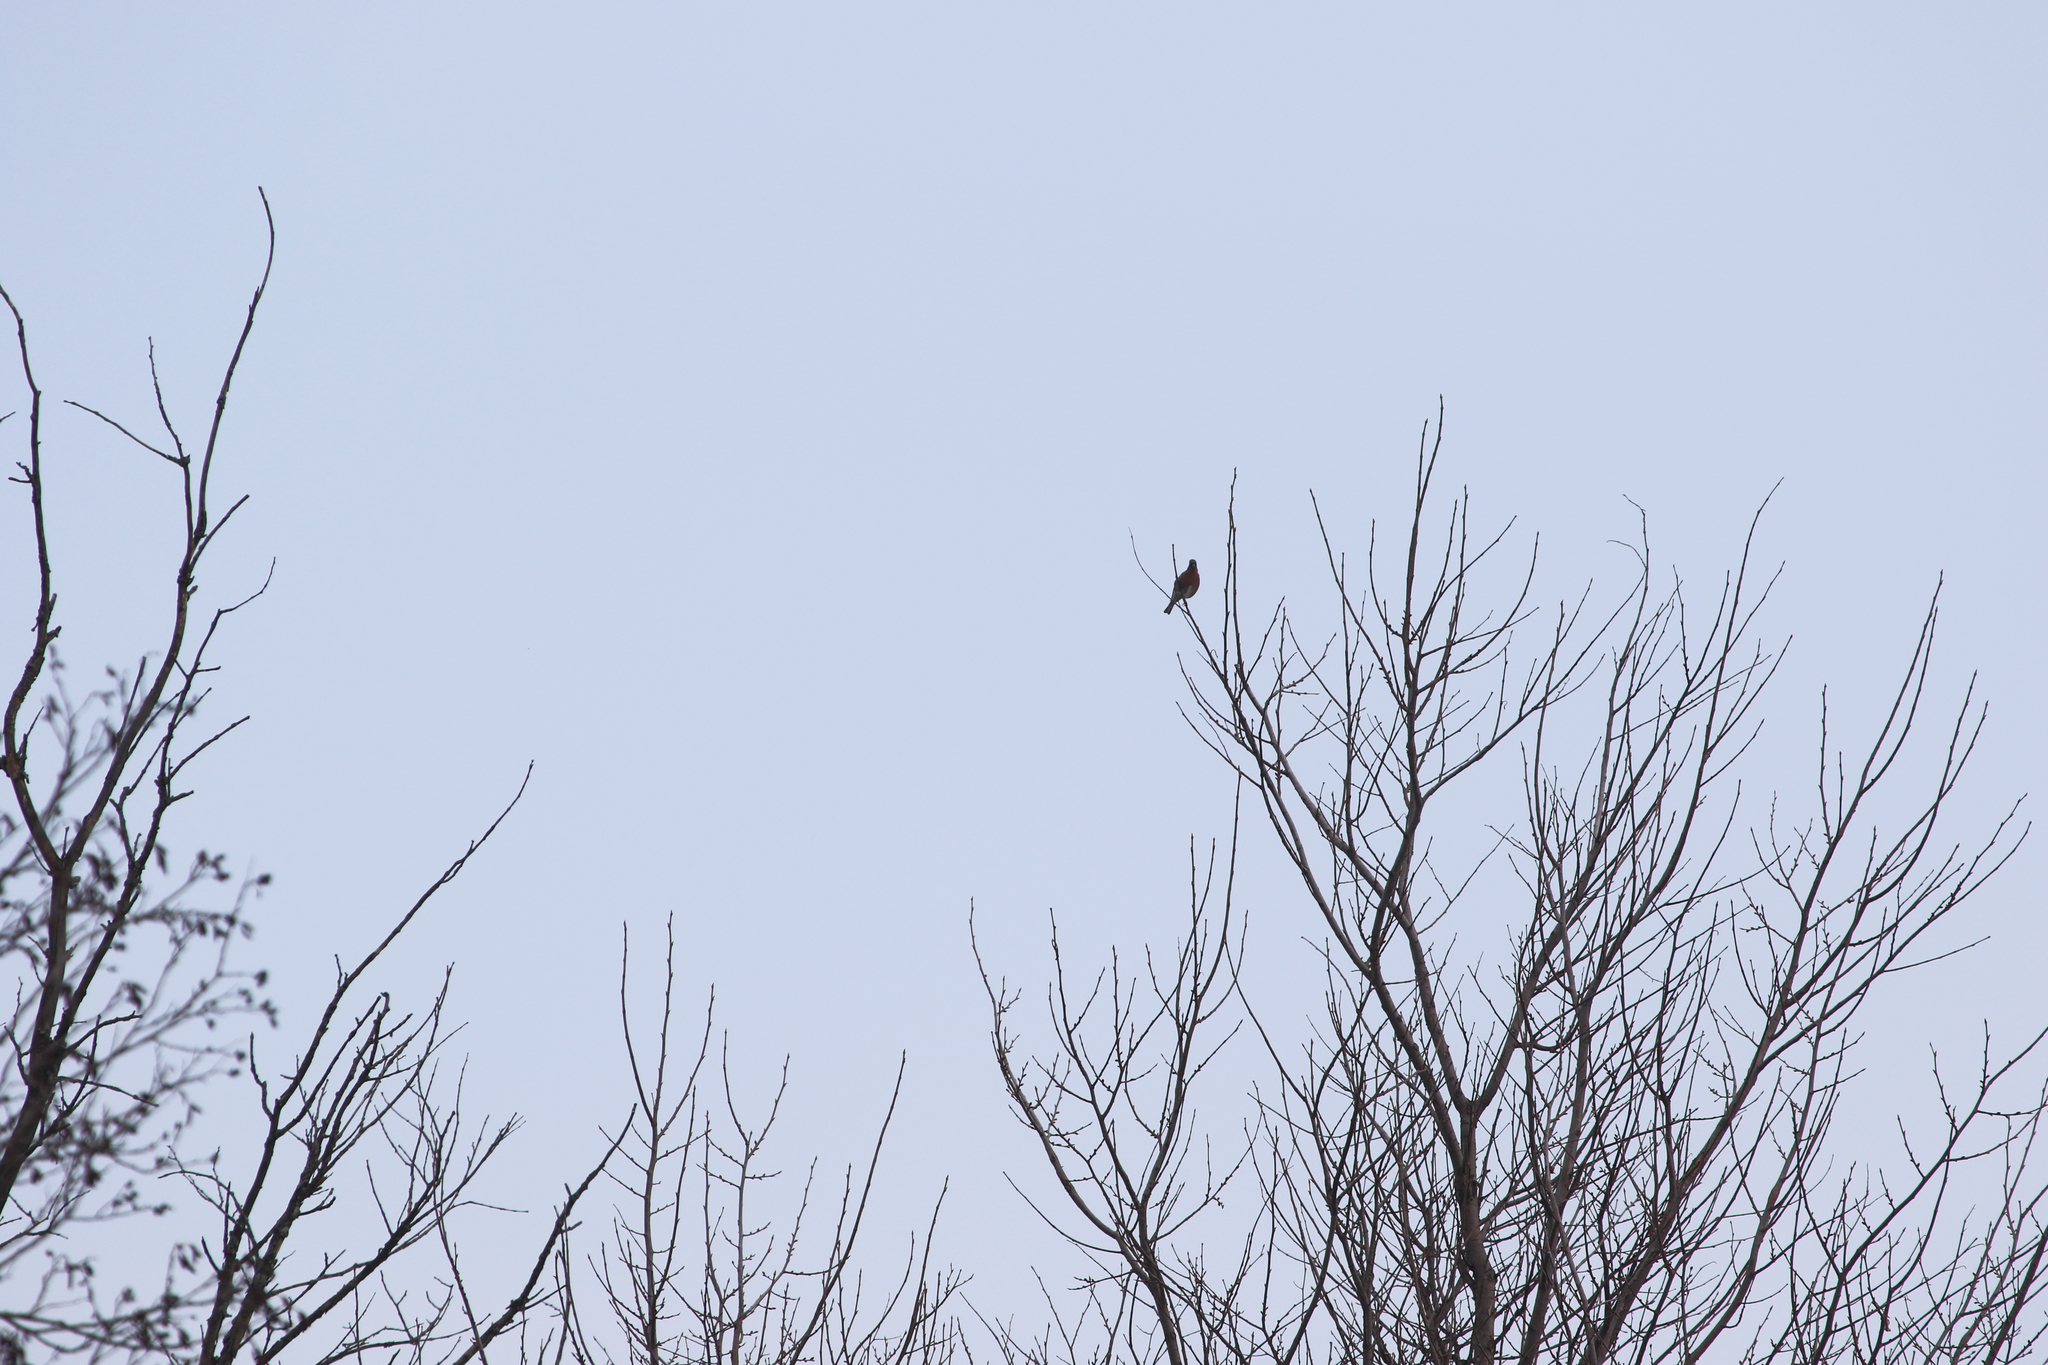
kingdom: Animalia
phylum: Chordata
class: Aves
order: Passeriformes
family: Fringillidae
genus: Fringilla
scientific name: Fringilla coelebs
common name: Common chaffinch
